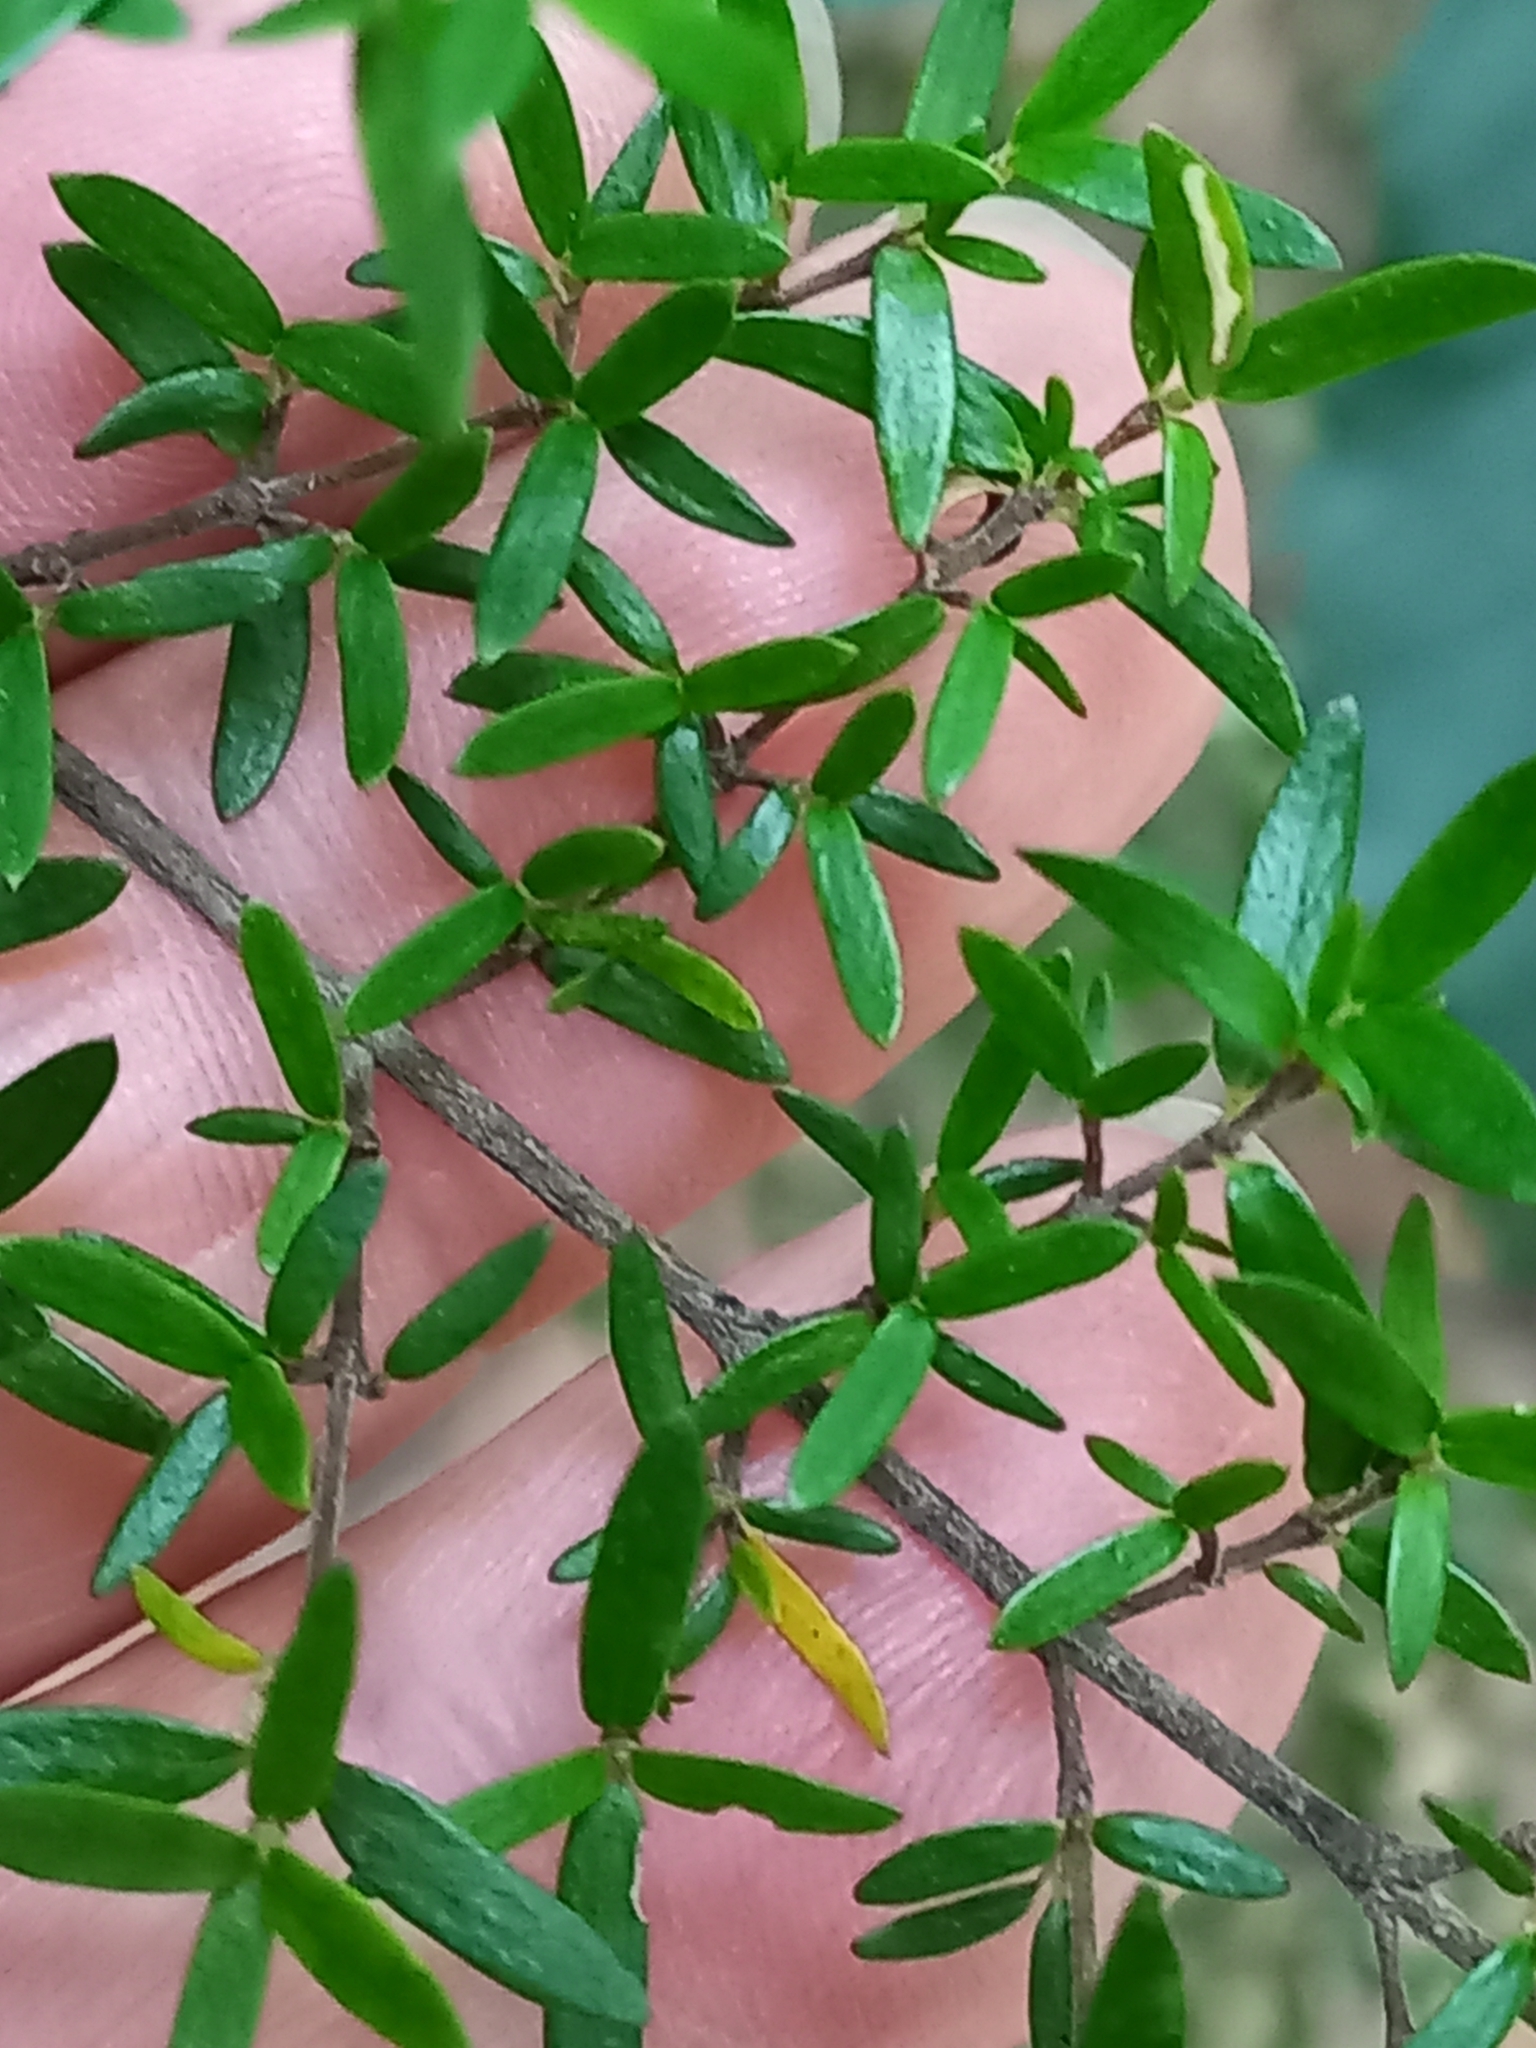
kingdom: Plantae
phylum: Tracheophyta
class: Magnoliopsida
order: Gentianales
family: Rubiaceae
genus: Coprosma
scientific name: Coprosma microcarpa
